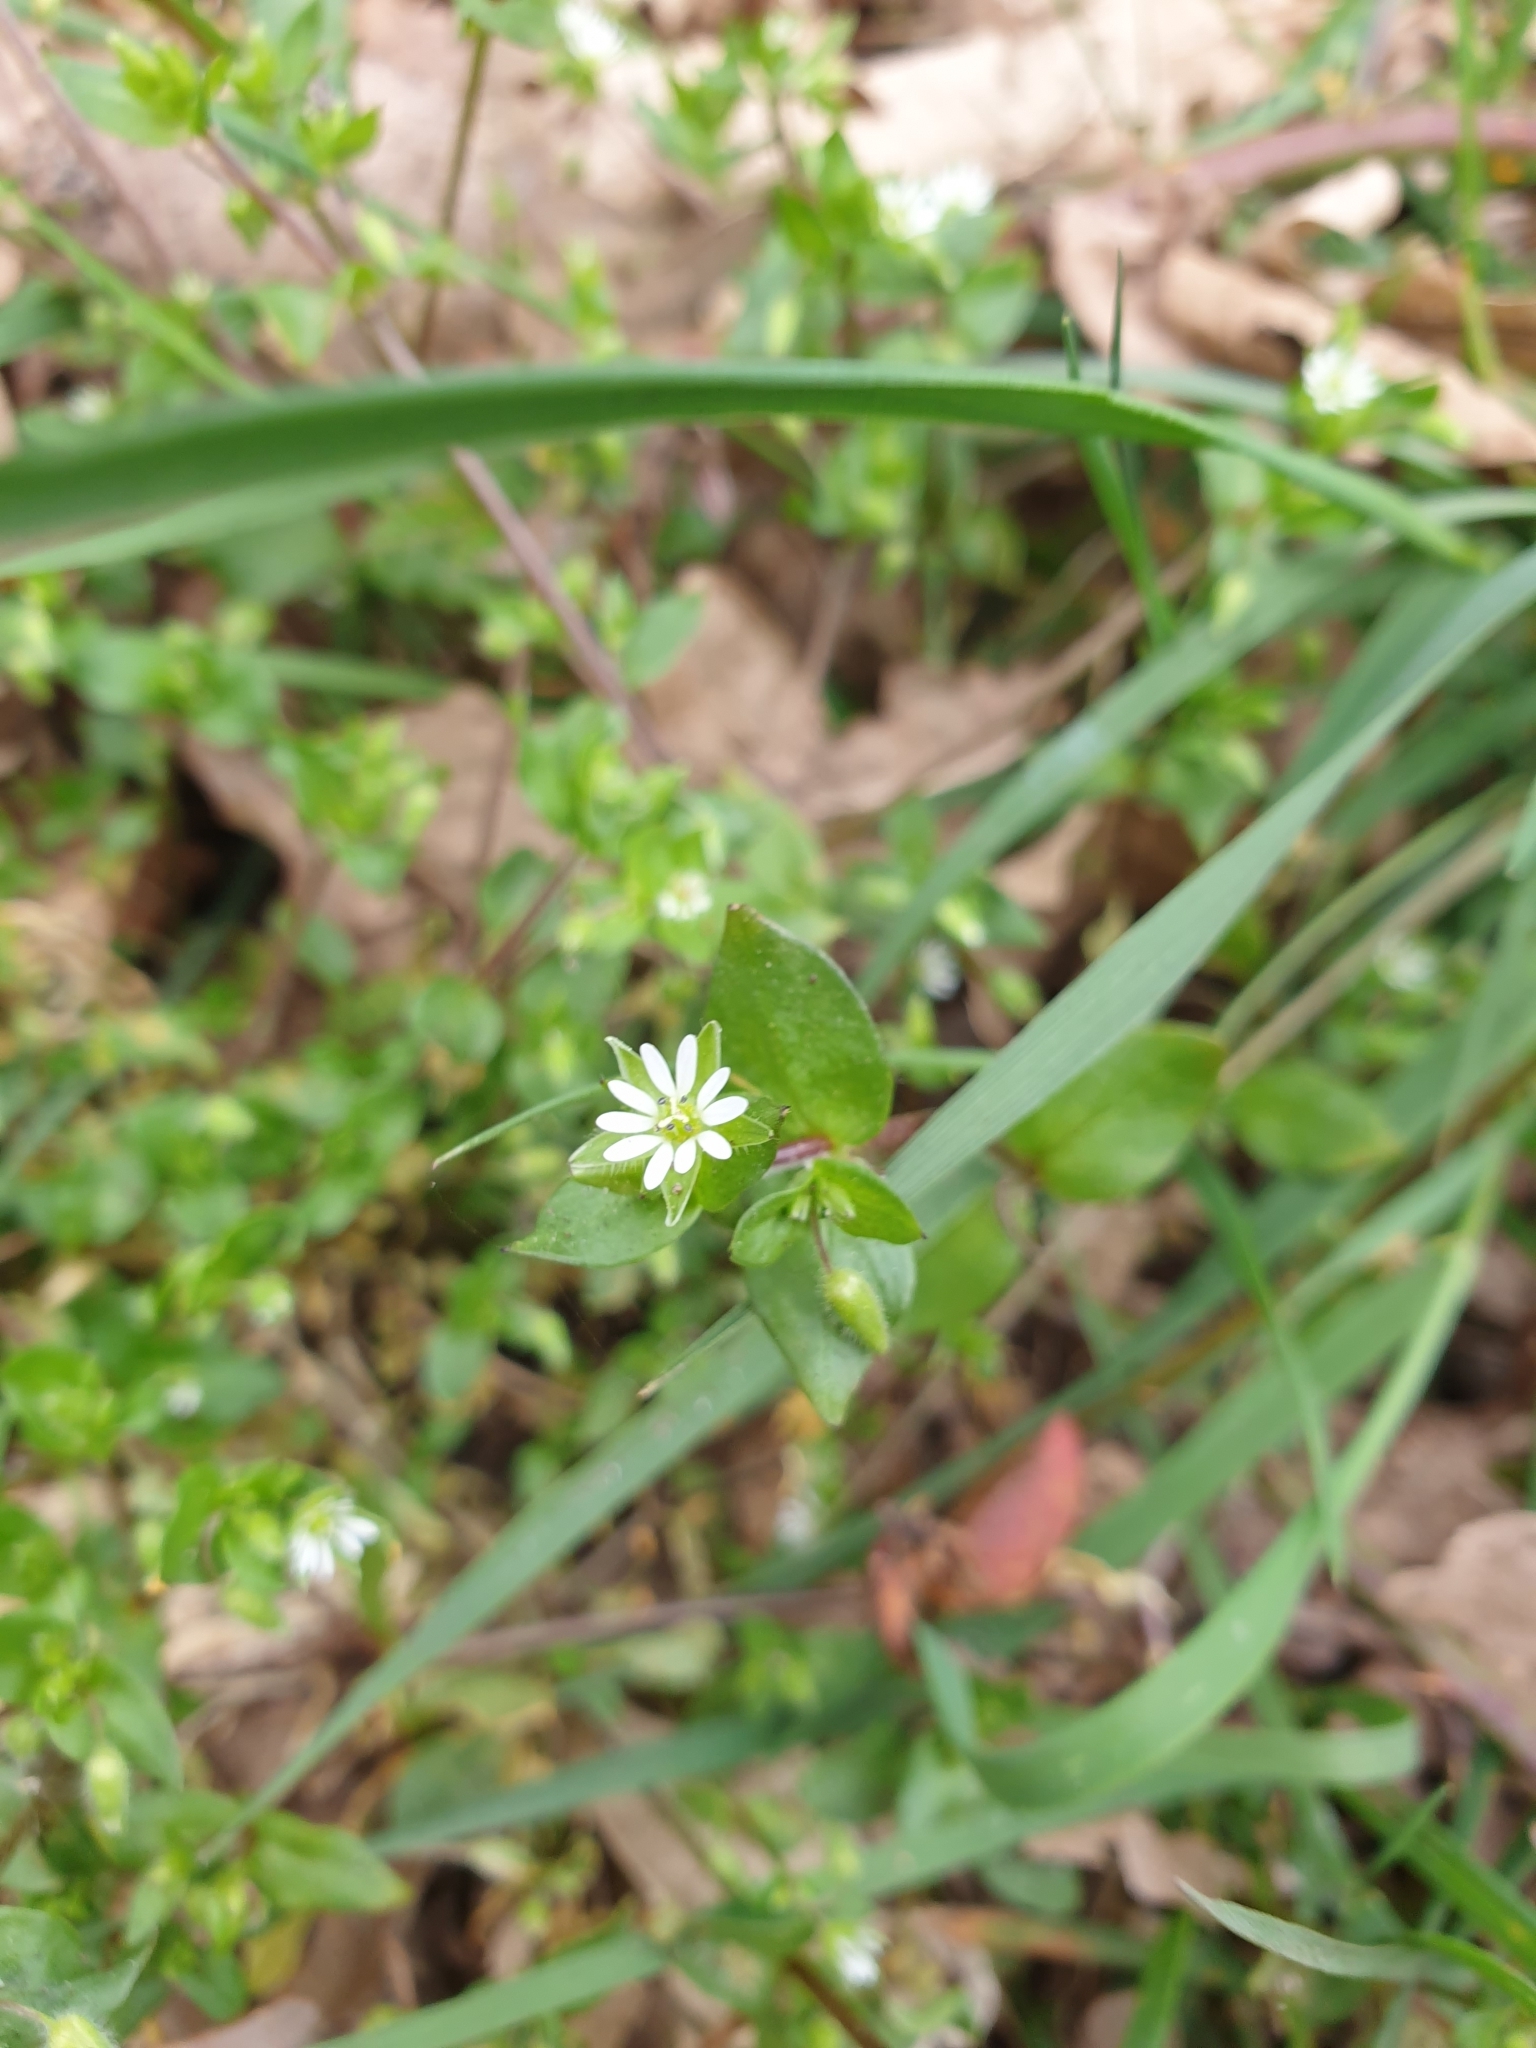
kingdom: Plantae
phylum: Tracheophyta
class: Magnoliopsida
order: Caryophyllales
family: Caryophyllaceae
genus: Stellaria
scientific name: Stellaria media
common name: Common chickweed
